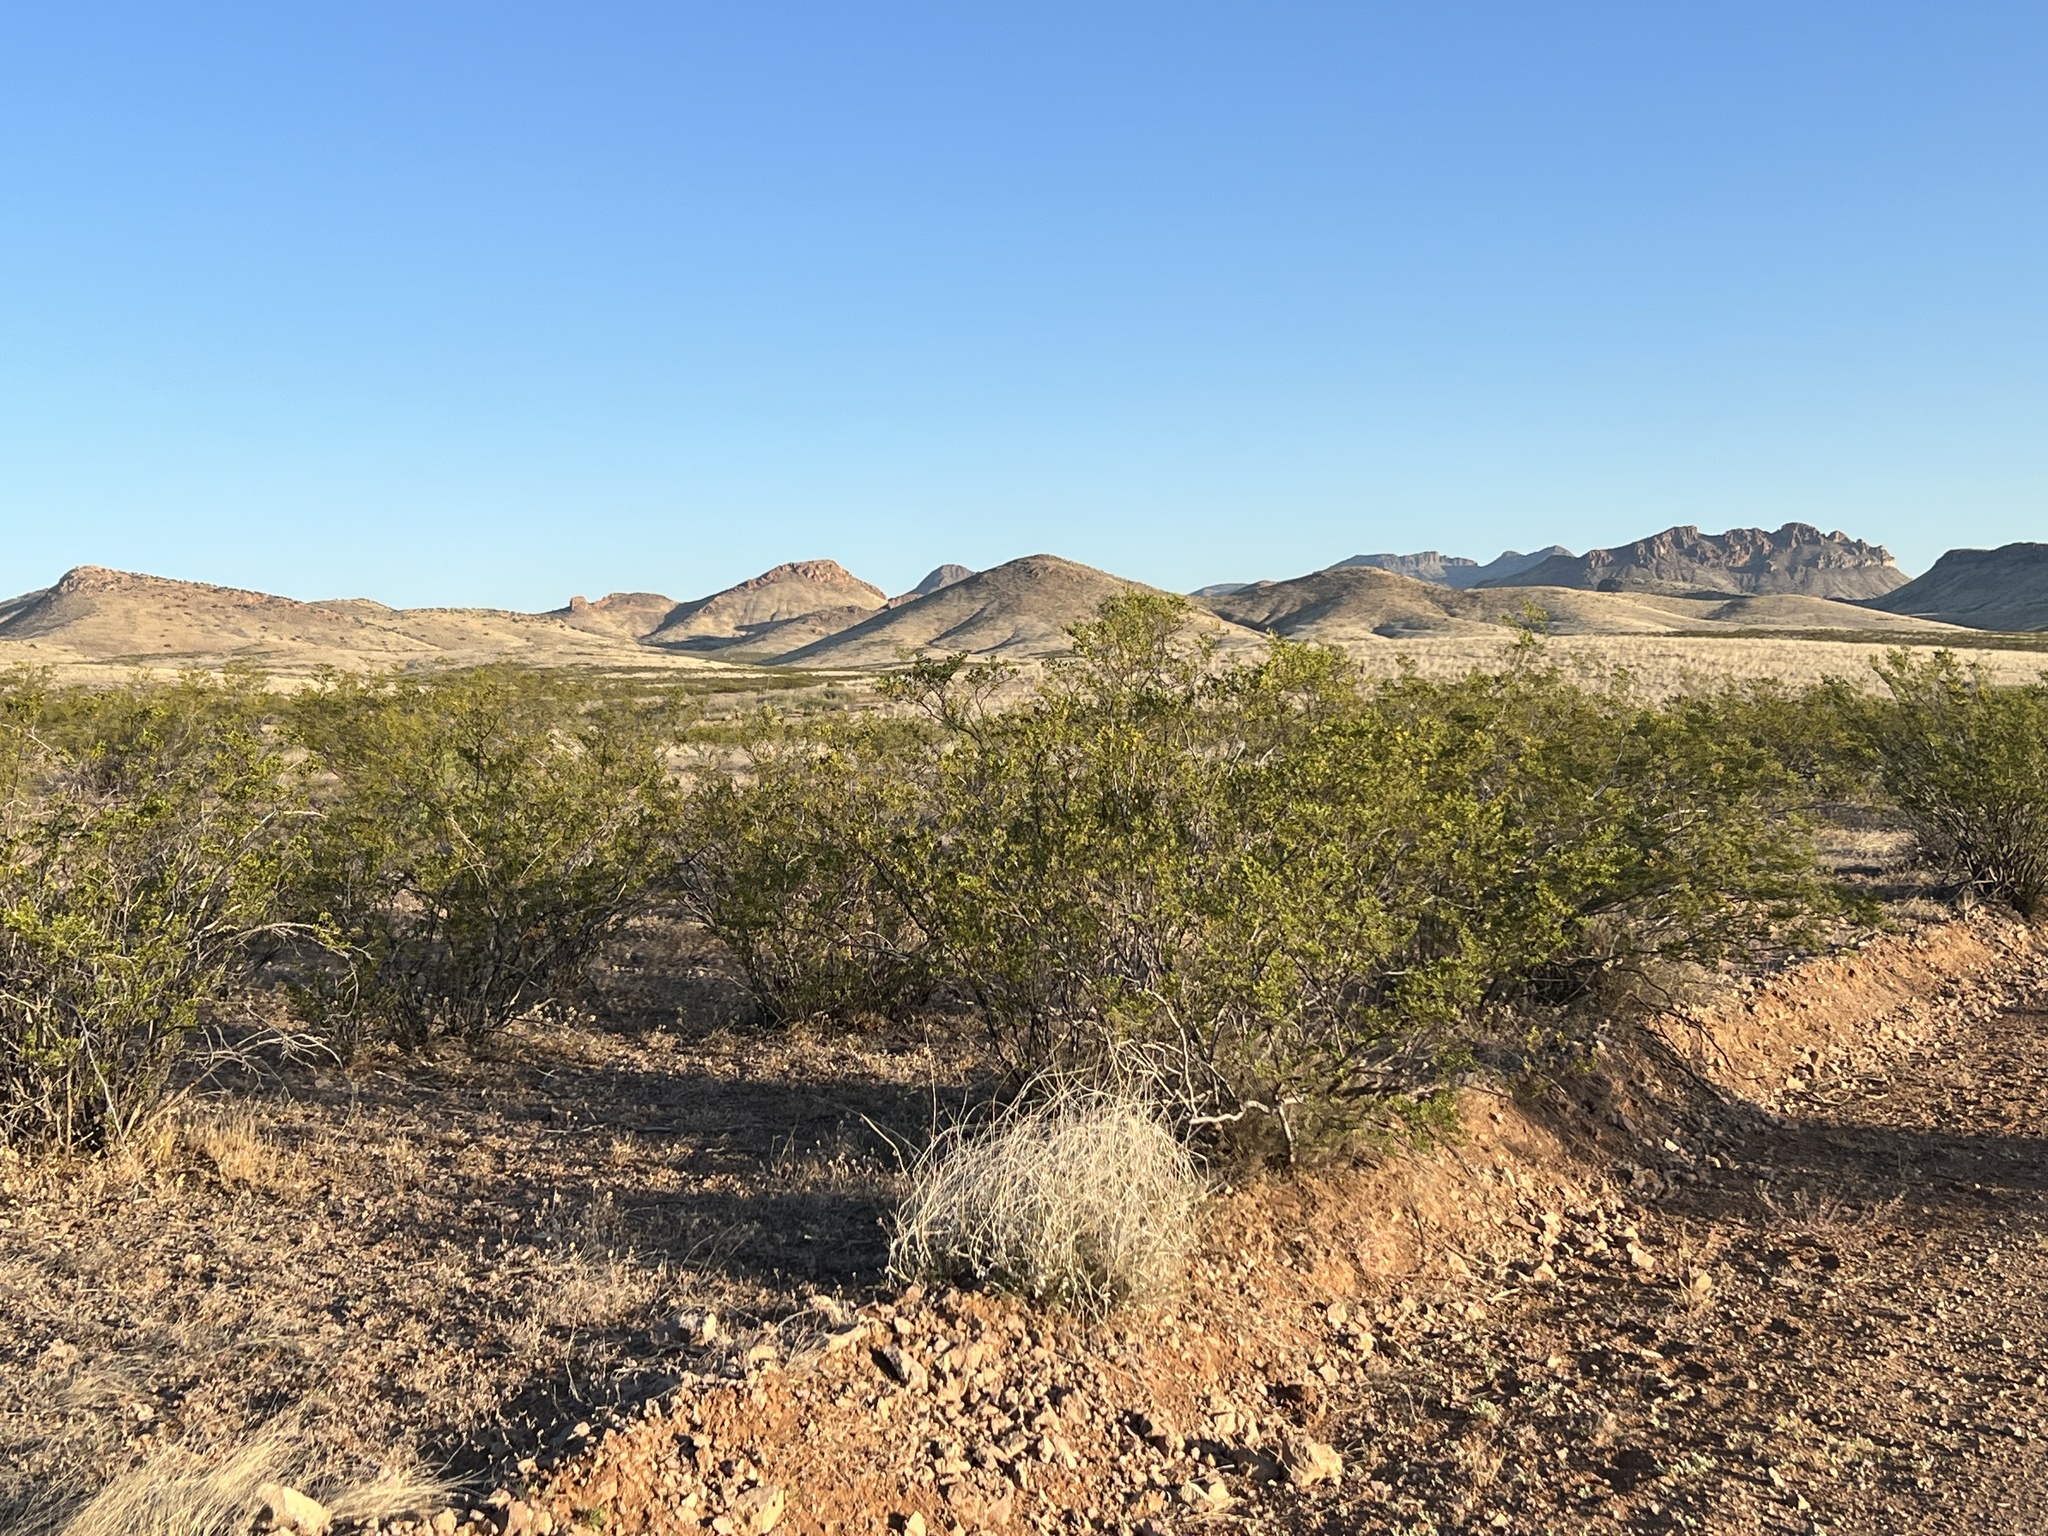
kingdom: Plantae
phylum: Tracheophyta
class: Magnoliopsida
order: Zygophyllales
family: Zygophyllaceae
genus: Larrea
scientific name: Larrea tridentata
